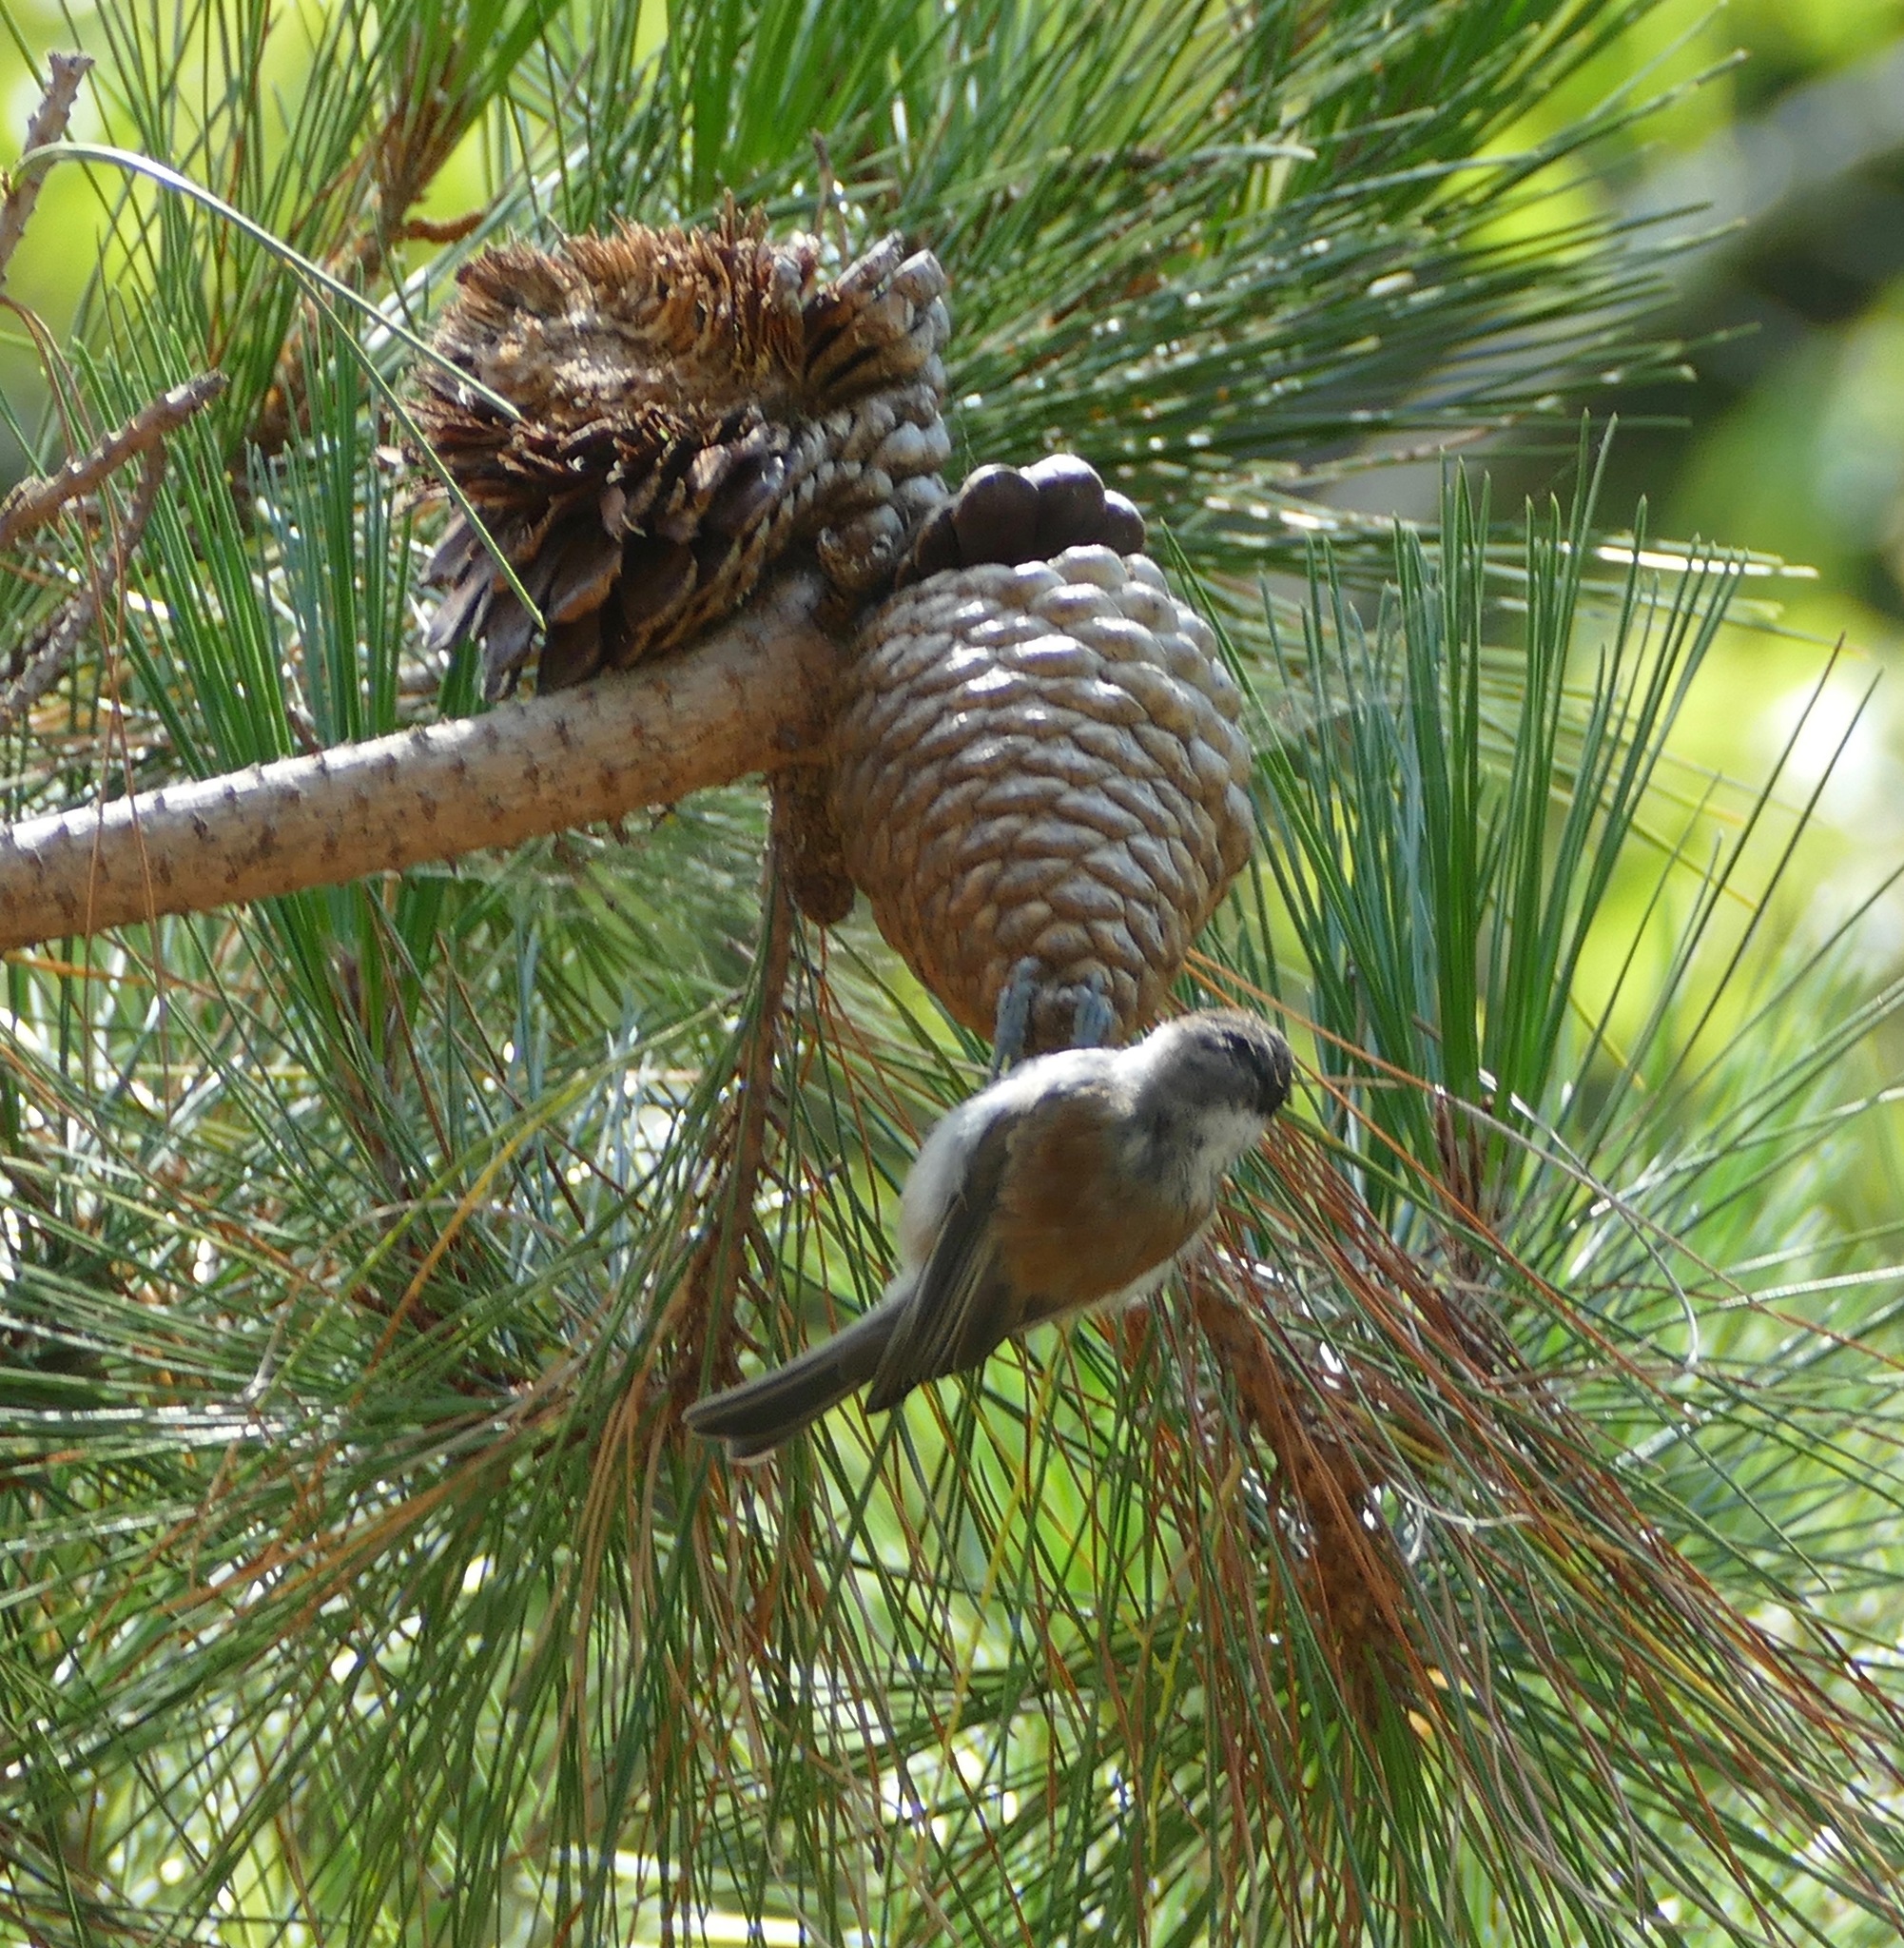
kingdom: Animalia
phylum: Chordata
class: Aves
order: Passeriformes
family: Paridae
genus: Poecile
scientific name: Poecile rufescens
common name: Chestnut-backed chickadee
